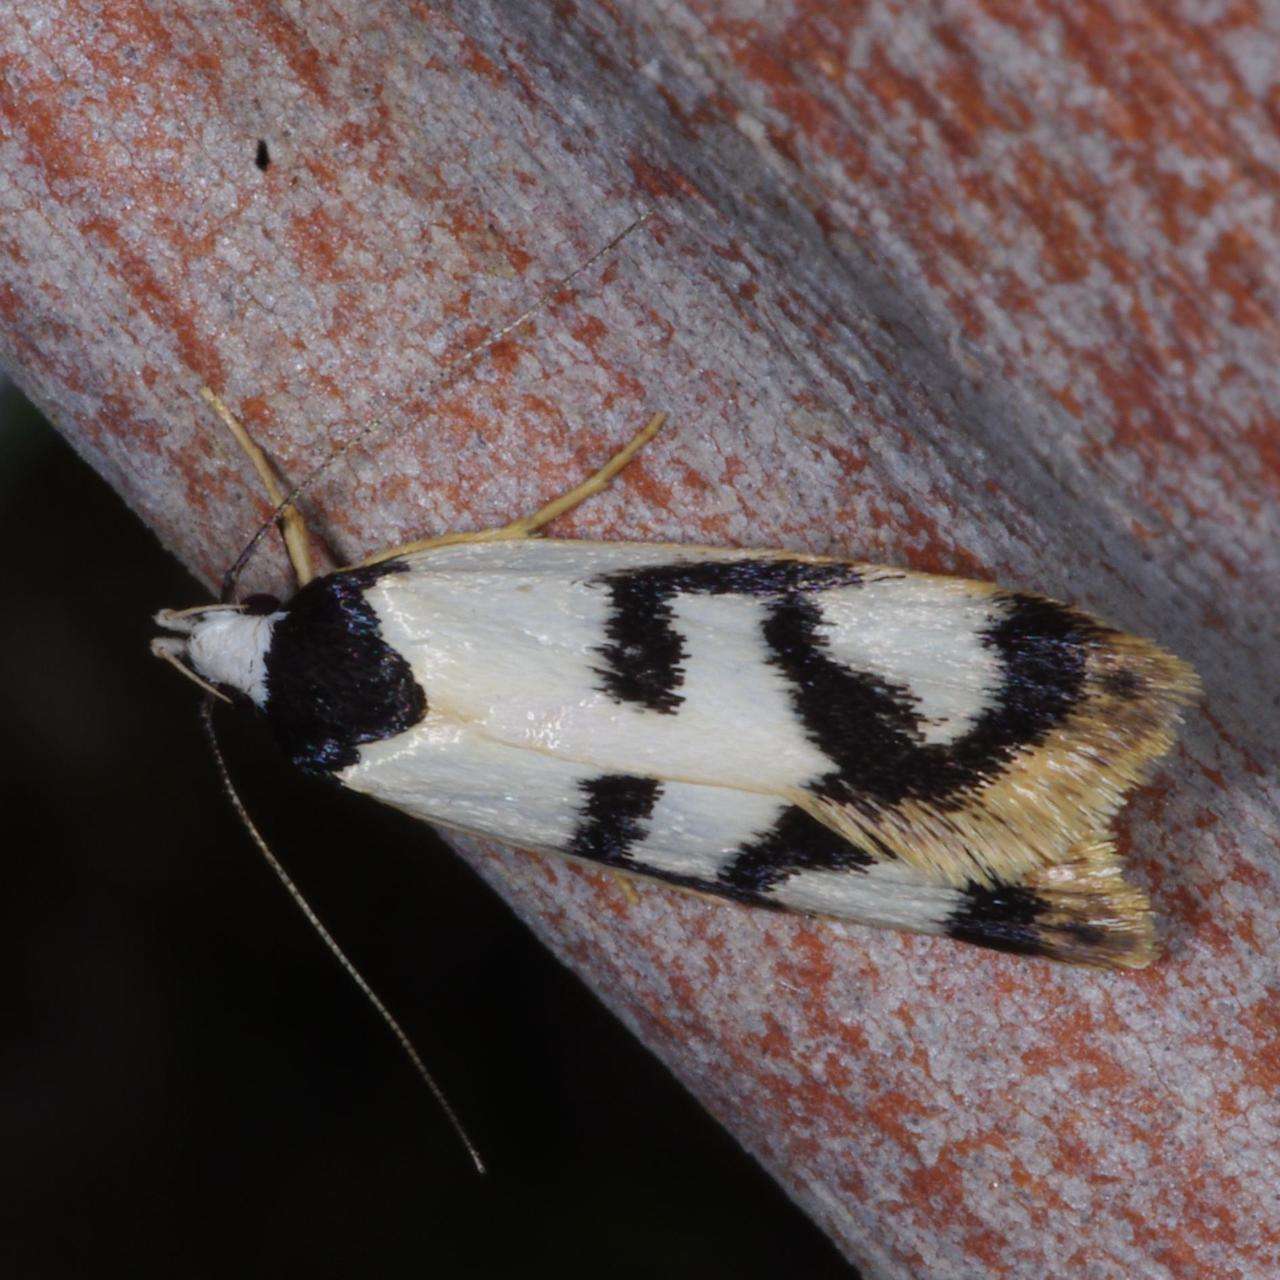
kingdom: Animalia
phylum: Arthropoda
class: Insecta
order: Lepidoptera
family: Oecophoridae
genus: Eulechria
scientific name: Eulechria sigmophora
